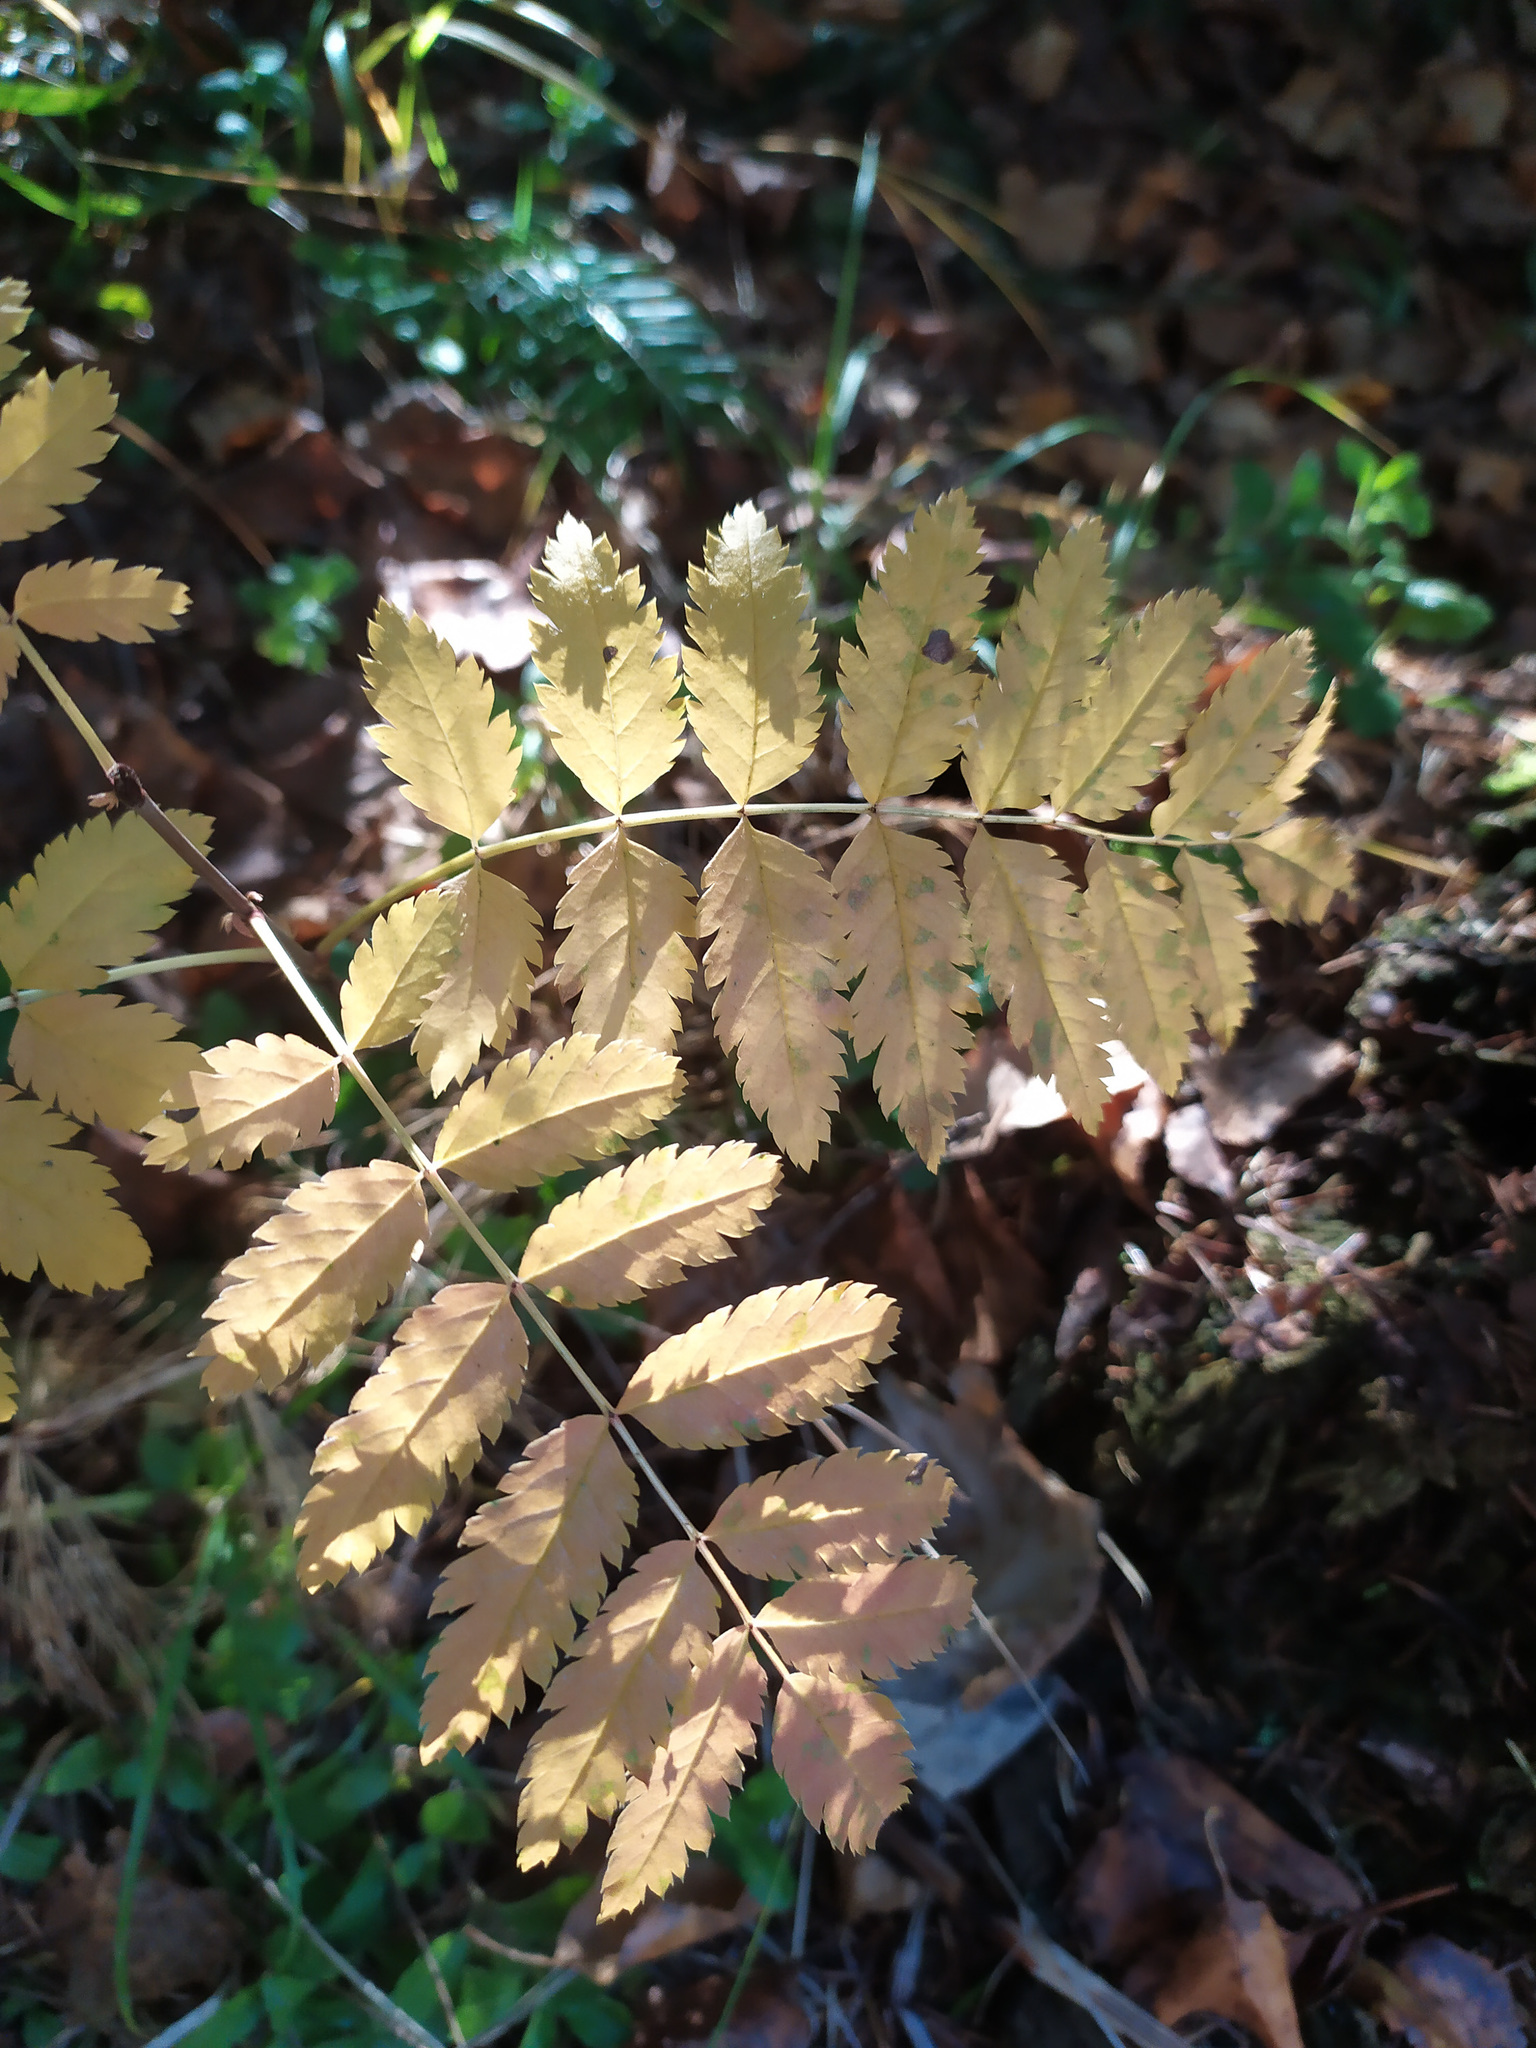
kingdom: Plantae
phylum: Tracheophyta
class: Magnoliopsida
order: Rosales
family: Rosaceae
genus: Sorbus
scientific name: Sorbus aucuparia
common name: Rowan
